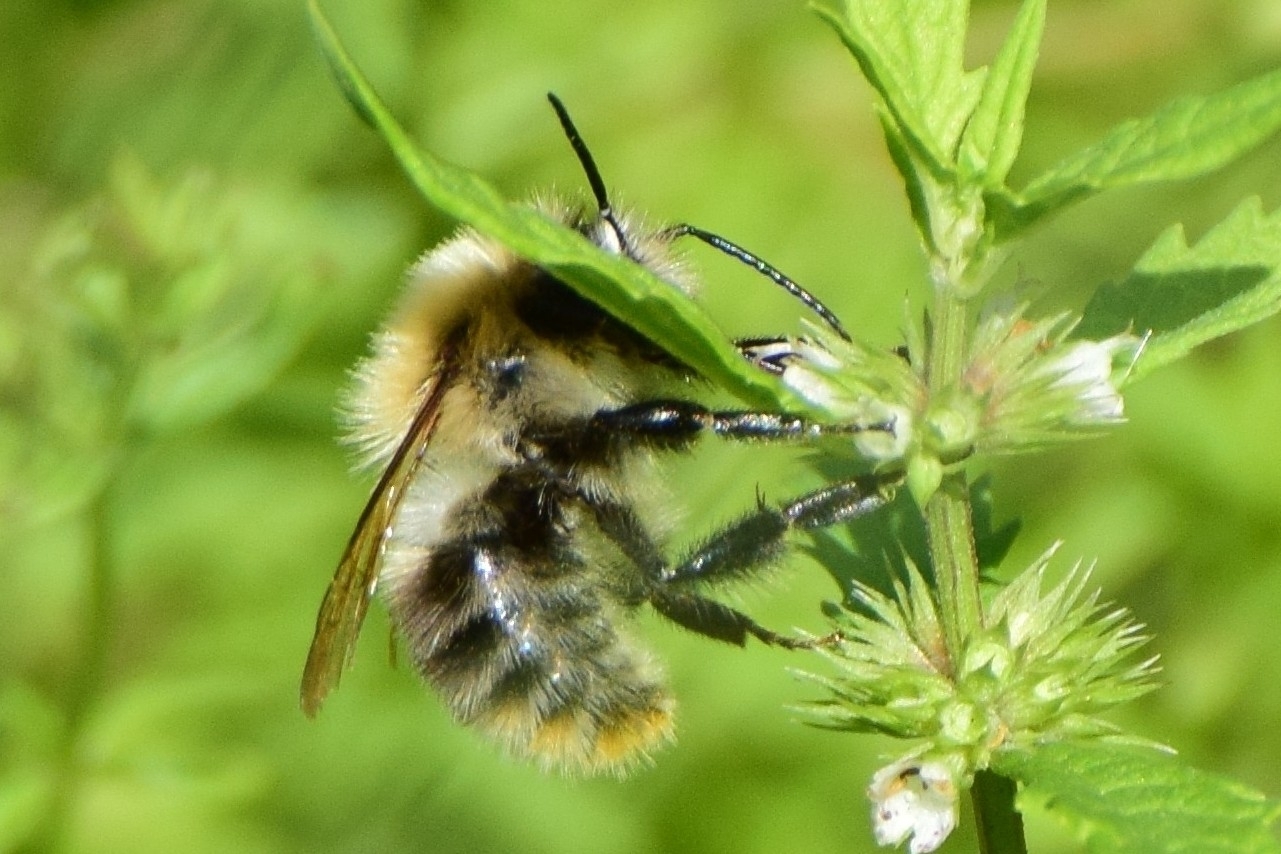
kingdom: Animalia
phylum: Arthropoda
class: Insecta
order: Hymenoptera
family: Apidae
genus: Bombus
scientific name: Bombus pascuorum
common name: Common carder bee
